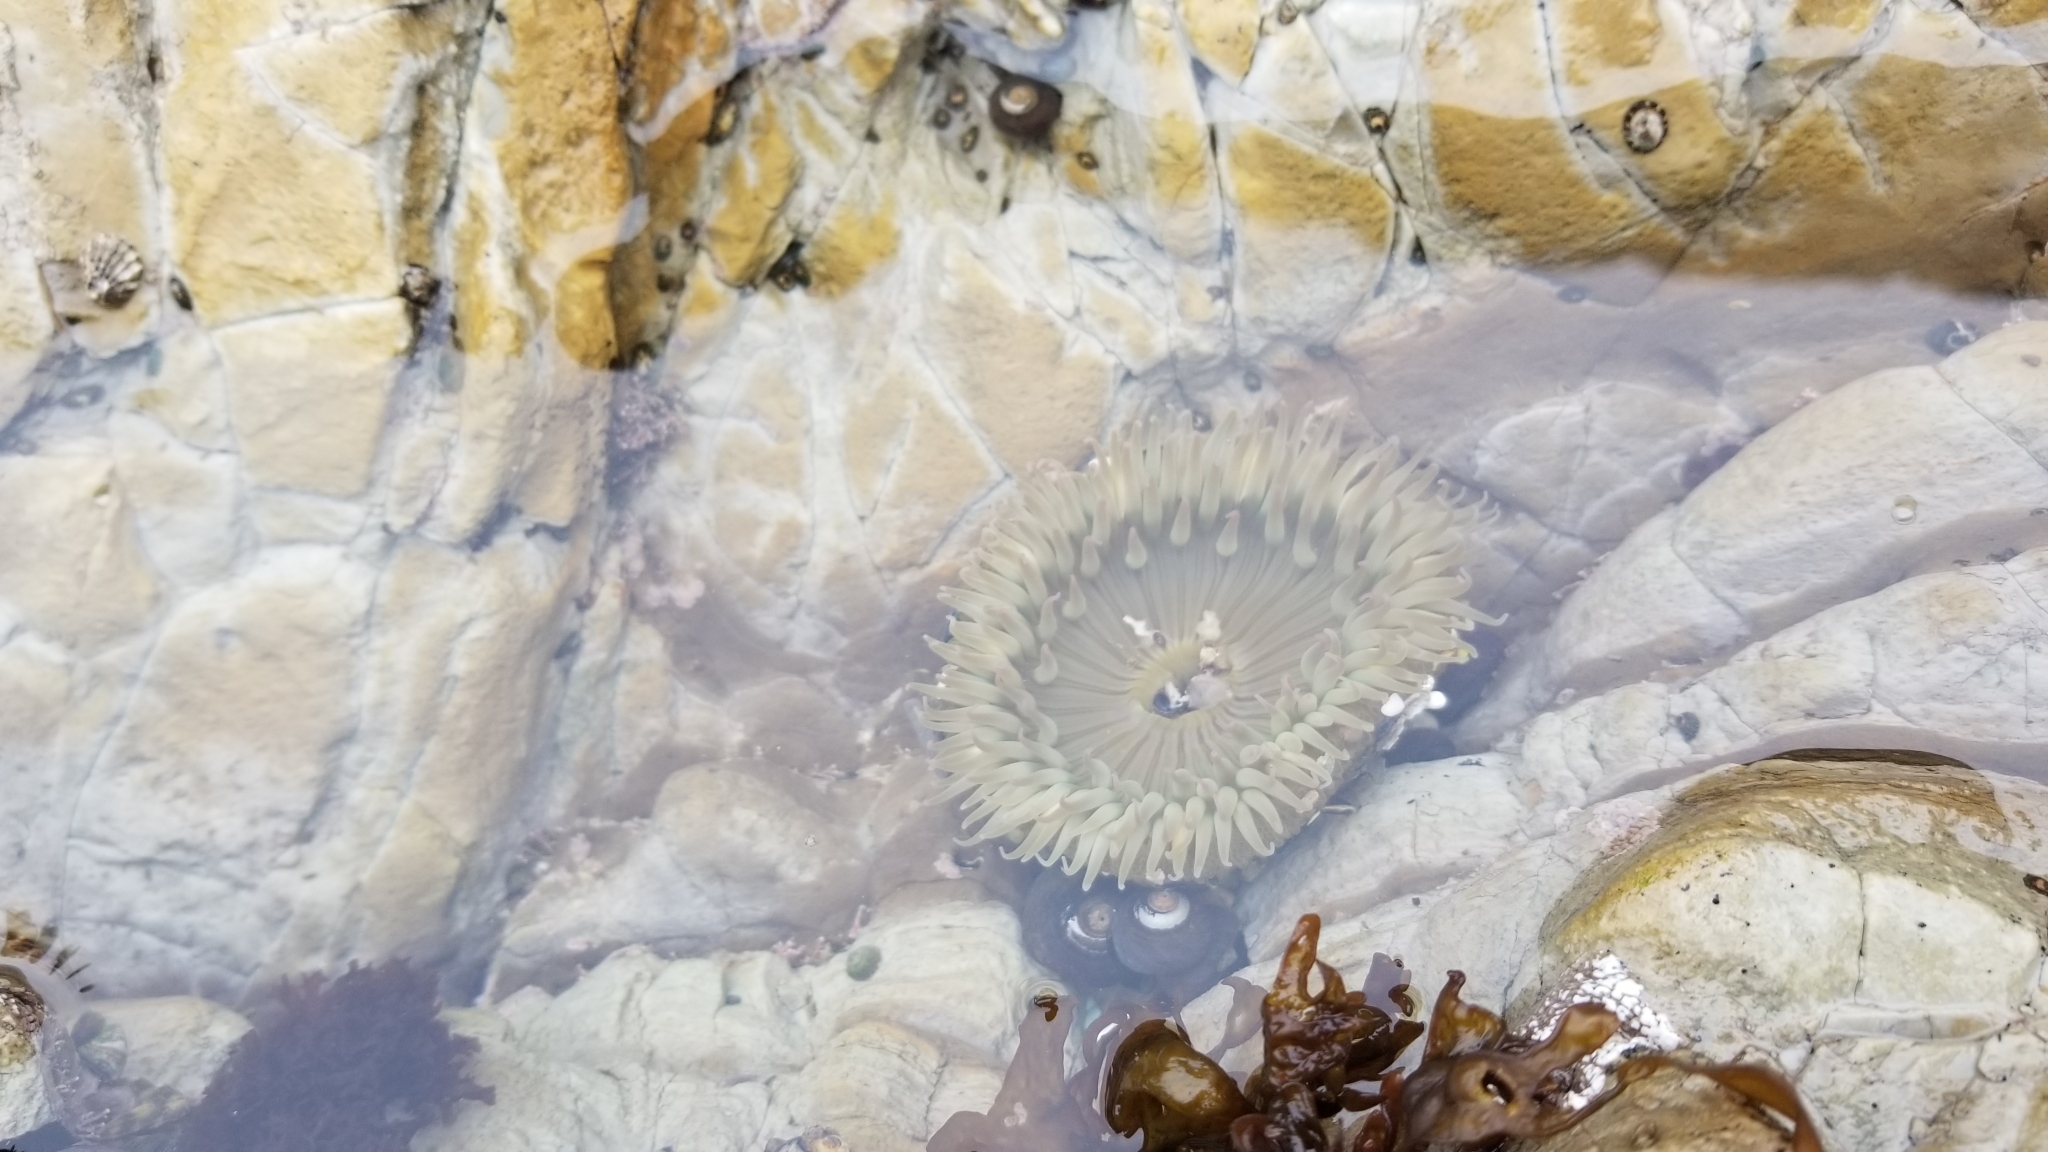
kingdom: Animalia
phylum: Cnidaria
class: Anthozoa
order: Actiniaria
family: Actiniidae
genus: Anthopleura
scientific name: Anthopleura sola
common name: Sun anemone
